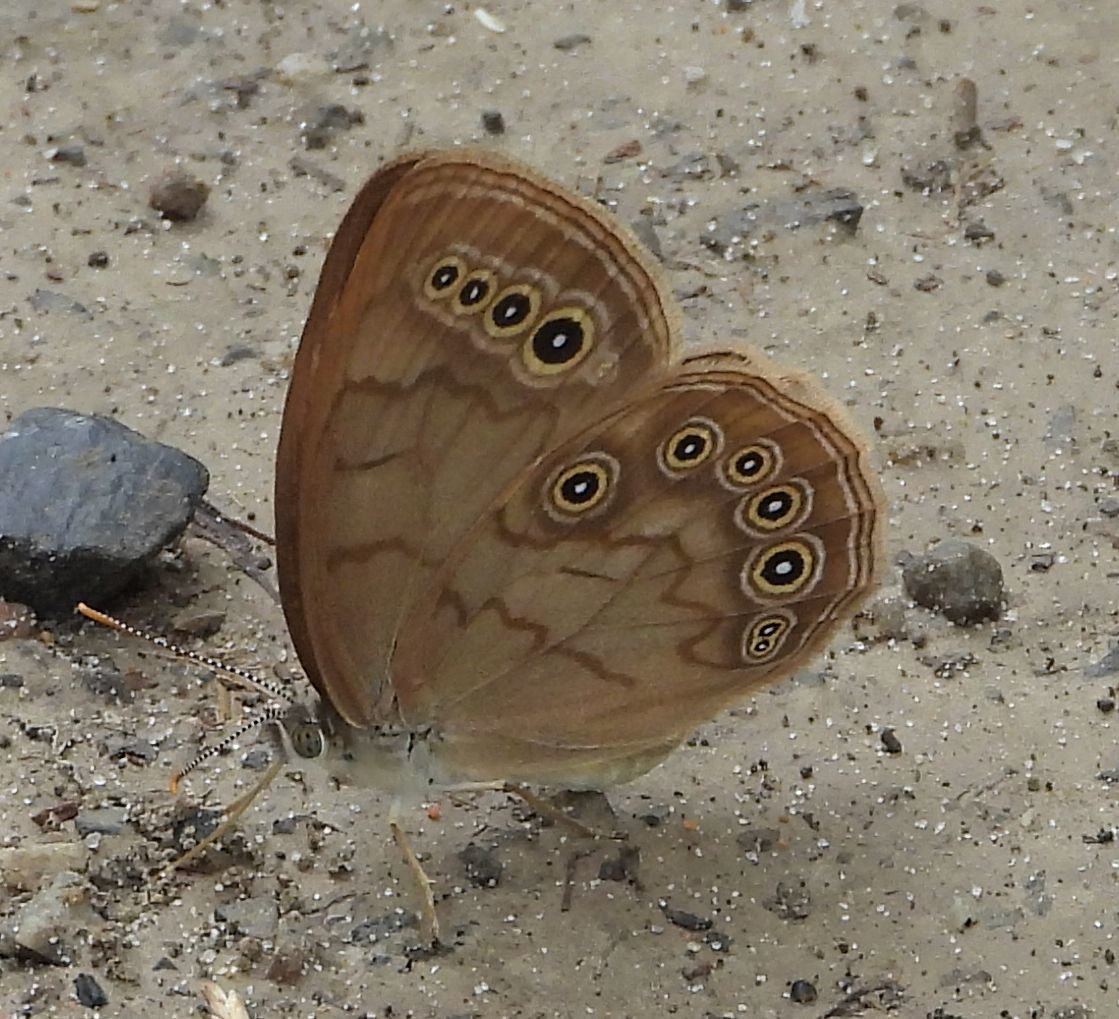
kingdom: Animalia
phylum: Arthropoda
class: Insecta
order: Lepidoptera
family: Nymphalidae
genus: Lethe
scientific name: Lethe eurydice
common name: Eyed brown
